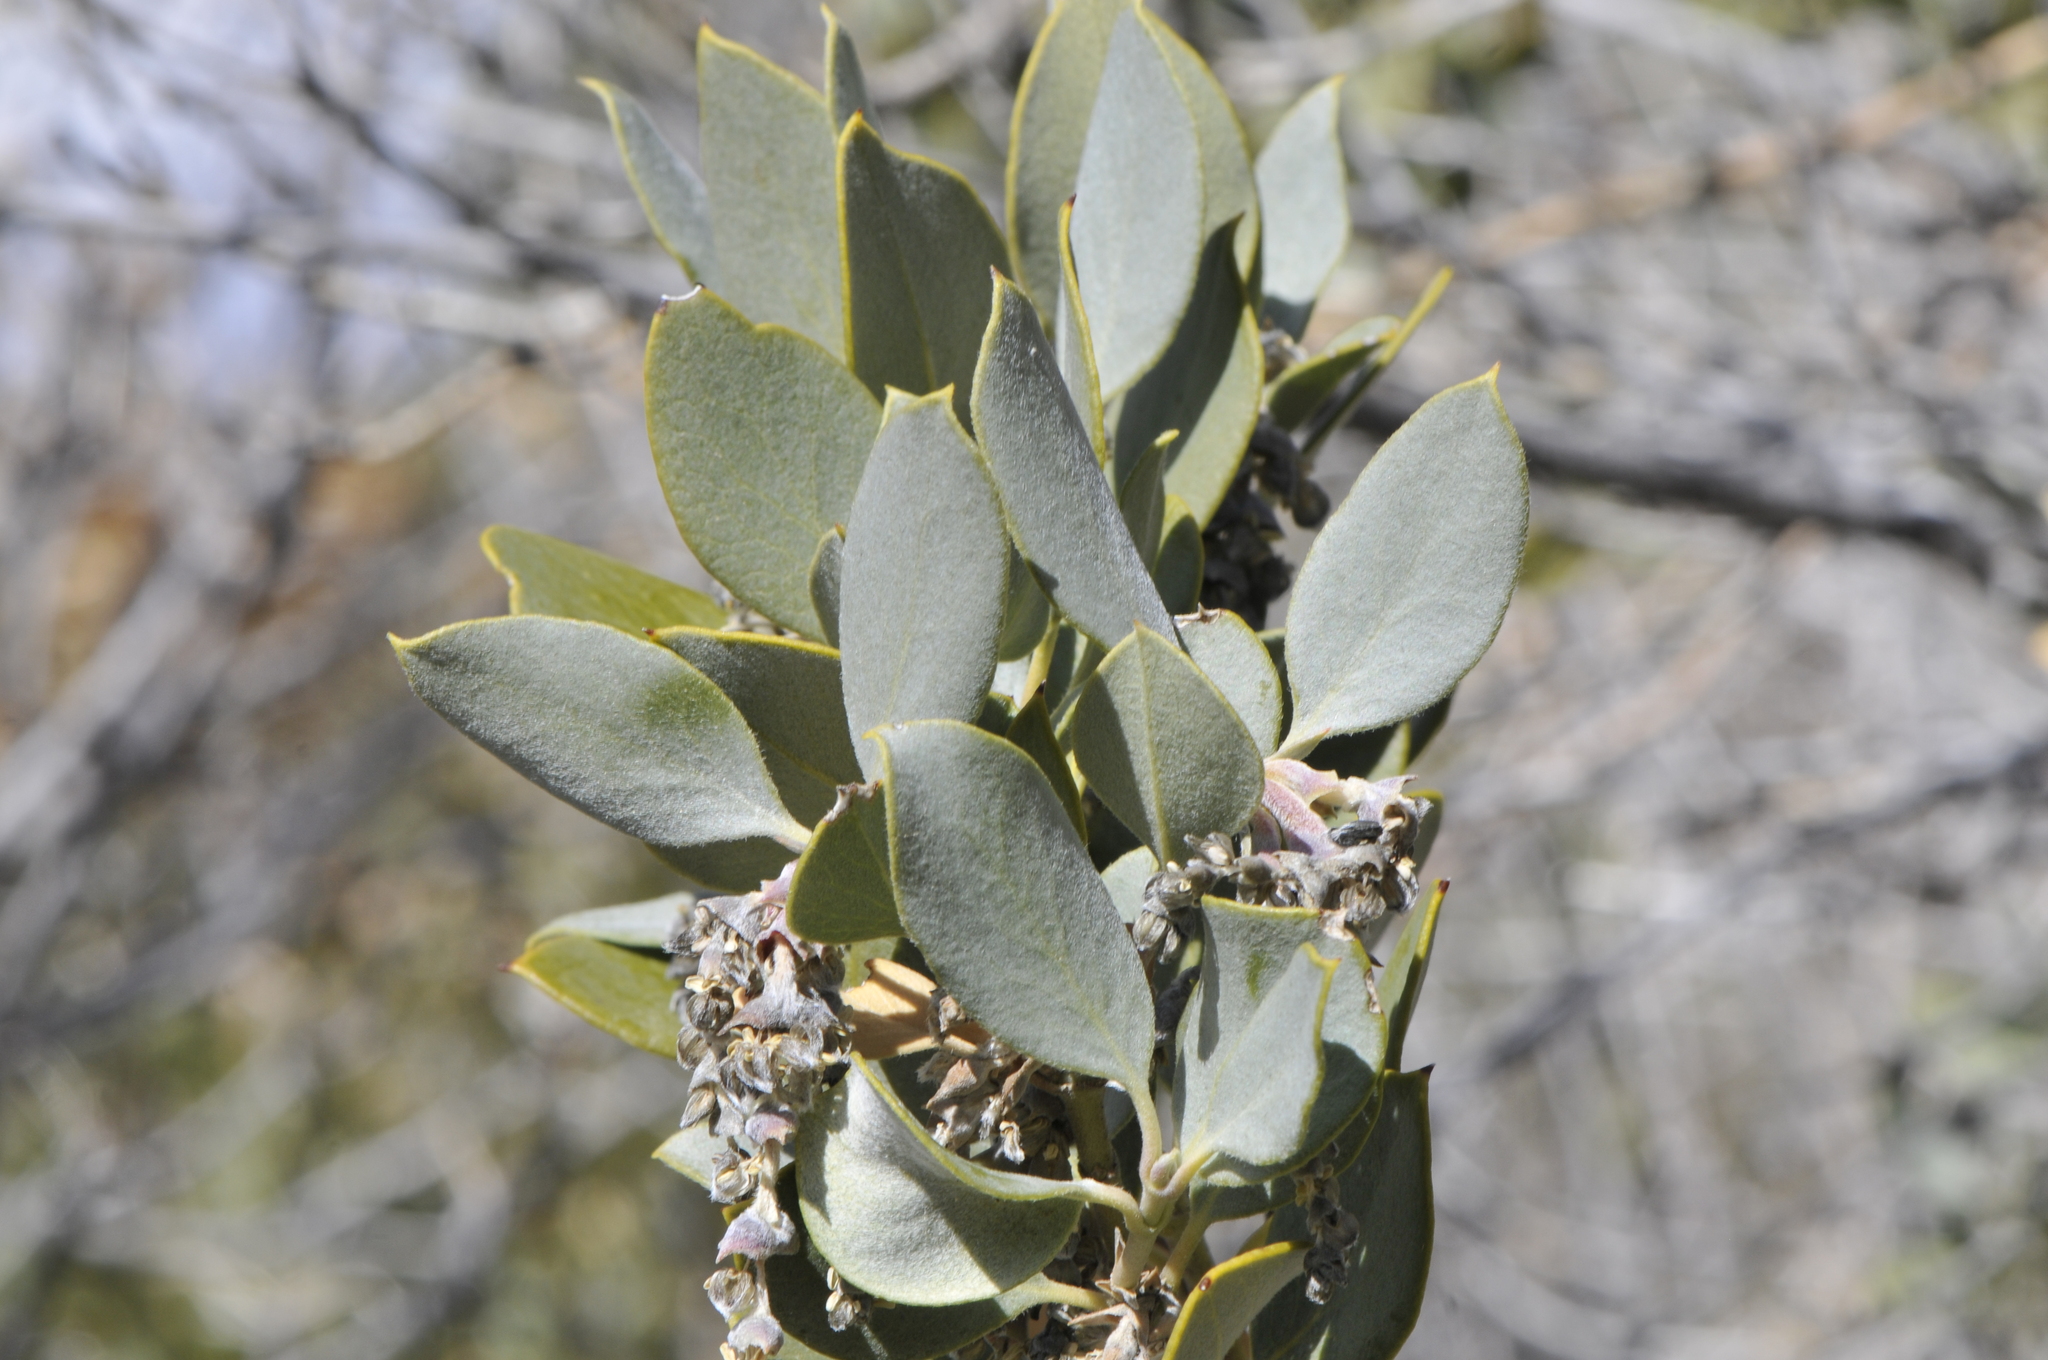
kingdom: Plantae
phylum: Tracheophyta
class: Magnoliopsida
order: Garryales
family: Garryaceae
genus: Garrya
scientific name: Garrya flavescens
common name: Ashy silk-tassel
